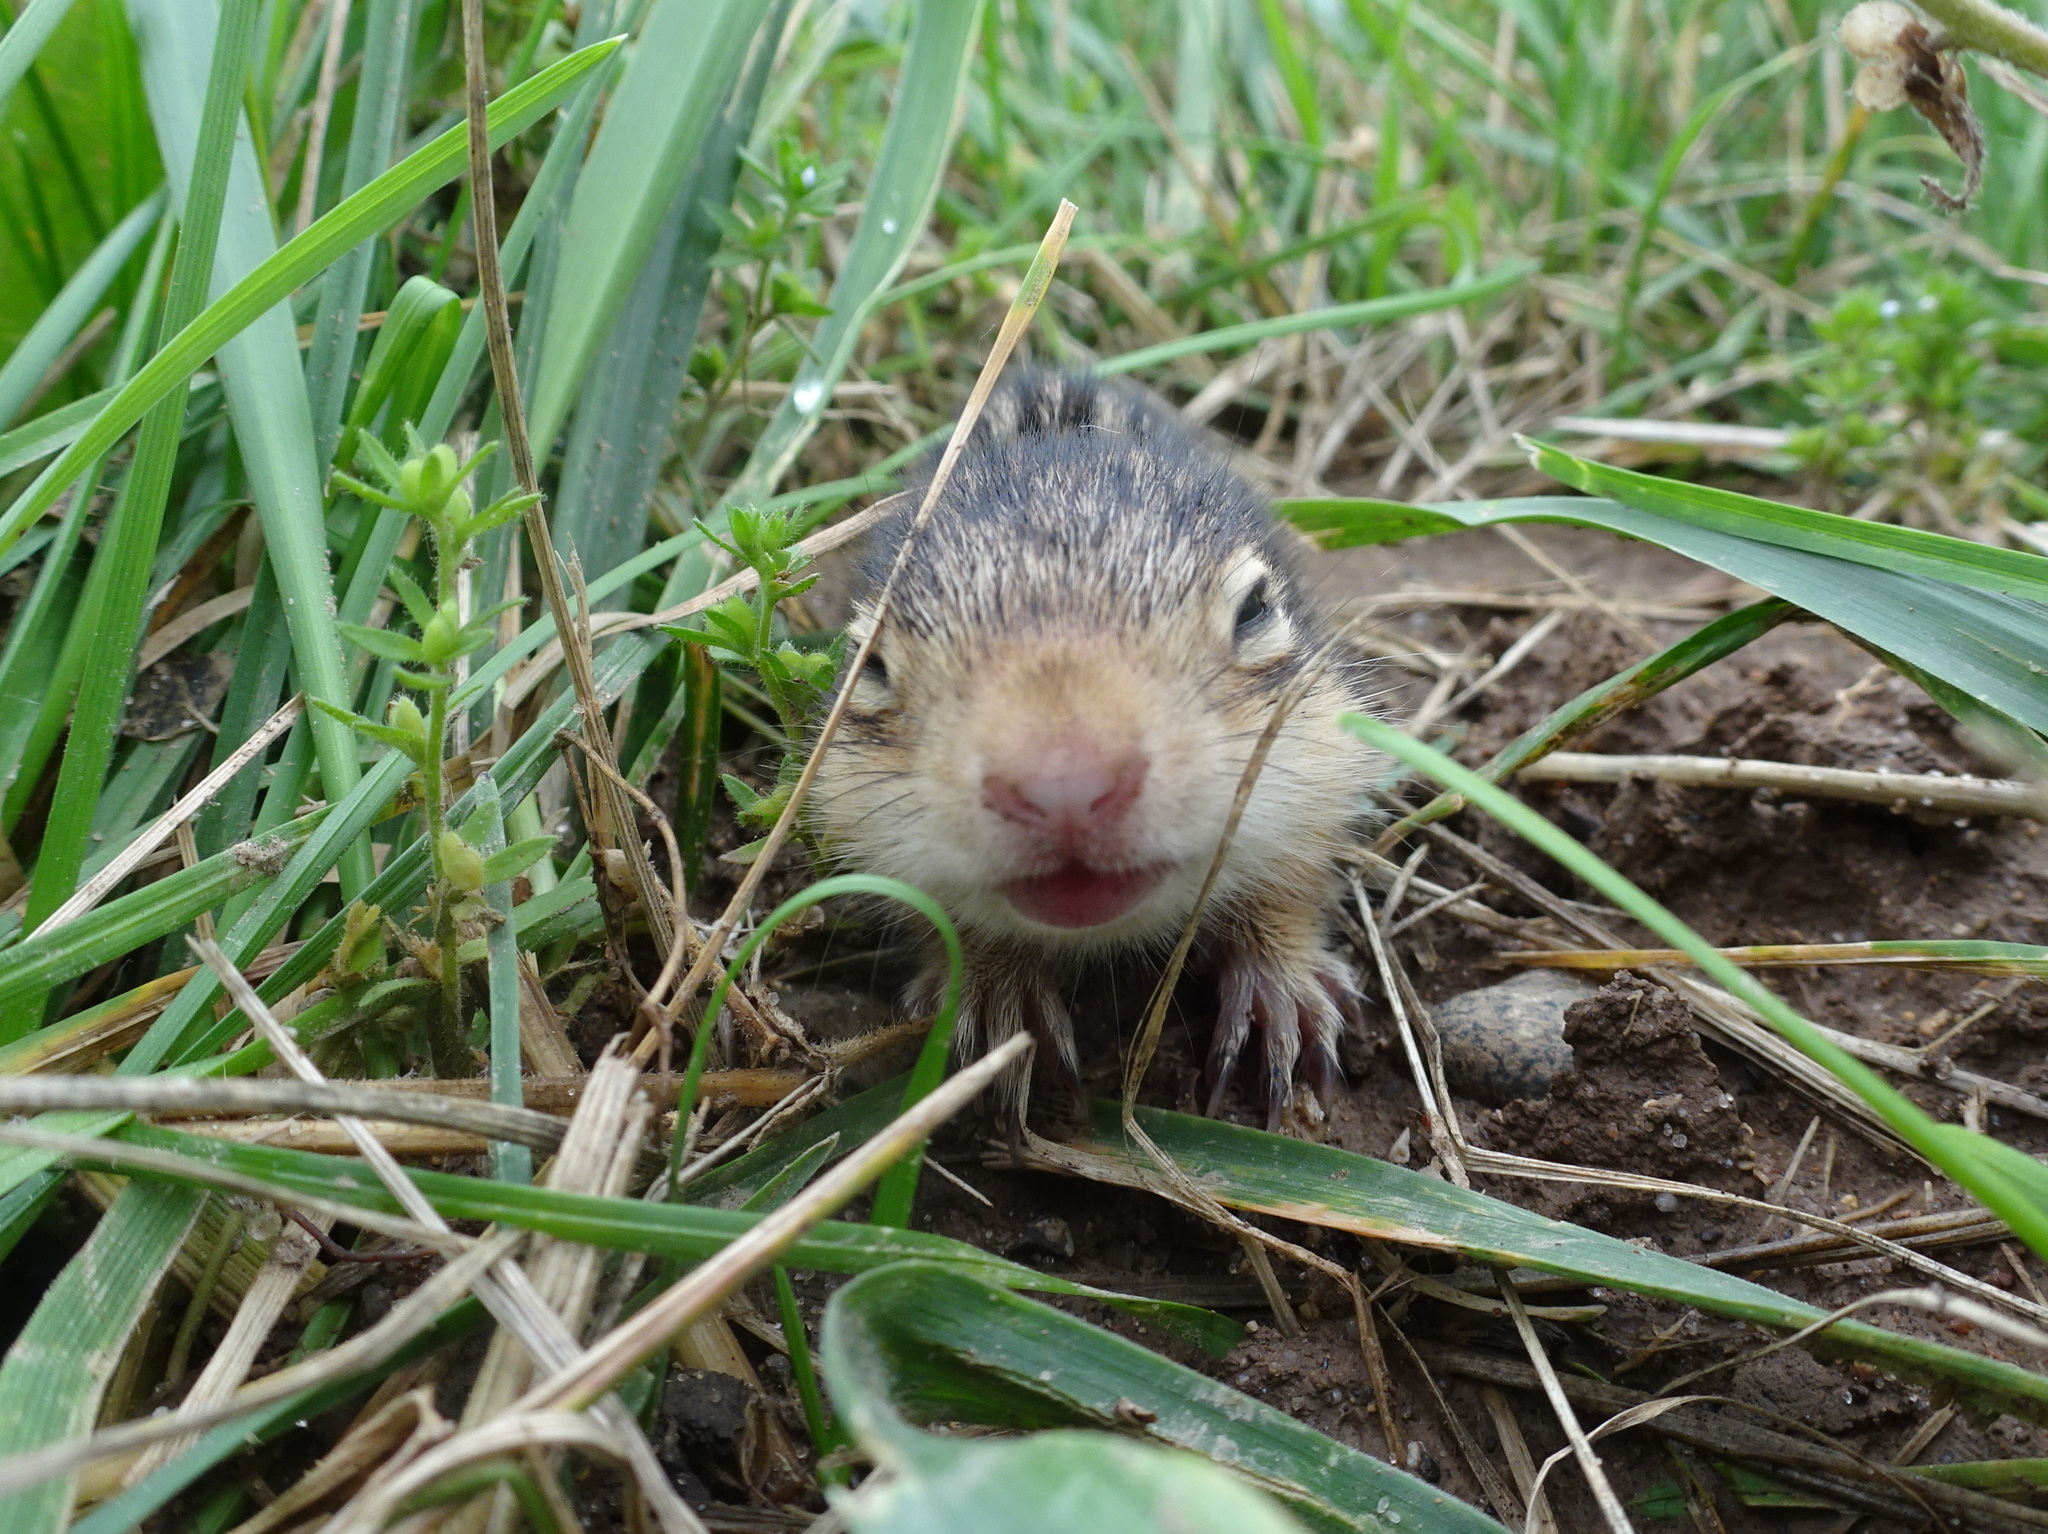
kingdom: Animalia
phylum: Chordata
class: Mammalia
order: Rodentia
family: Sciuridae
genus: Ictidomys
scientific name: Ictidomys tridecemlineatus
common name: Thirteen-lined ground squirrel
